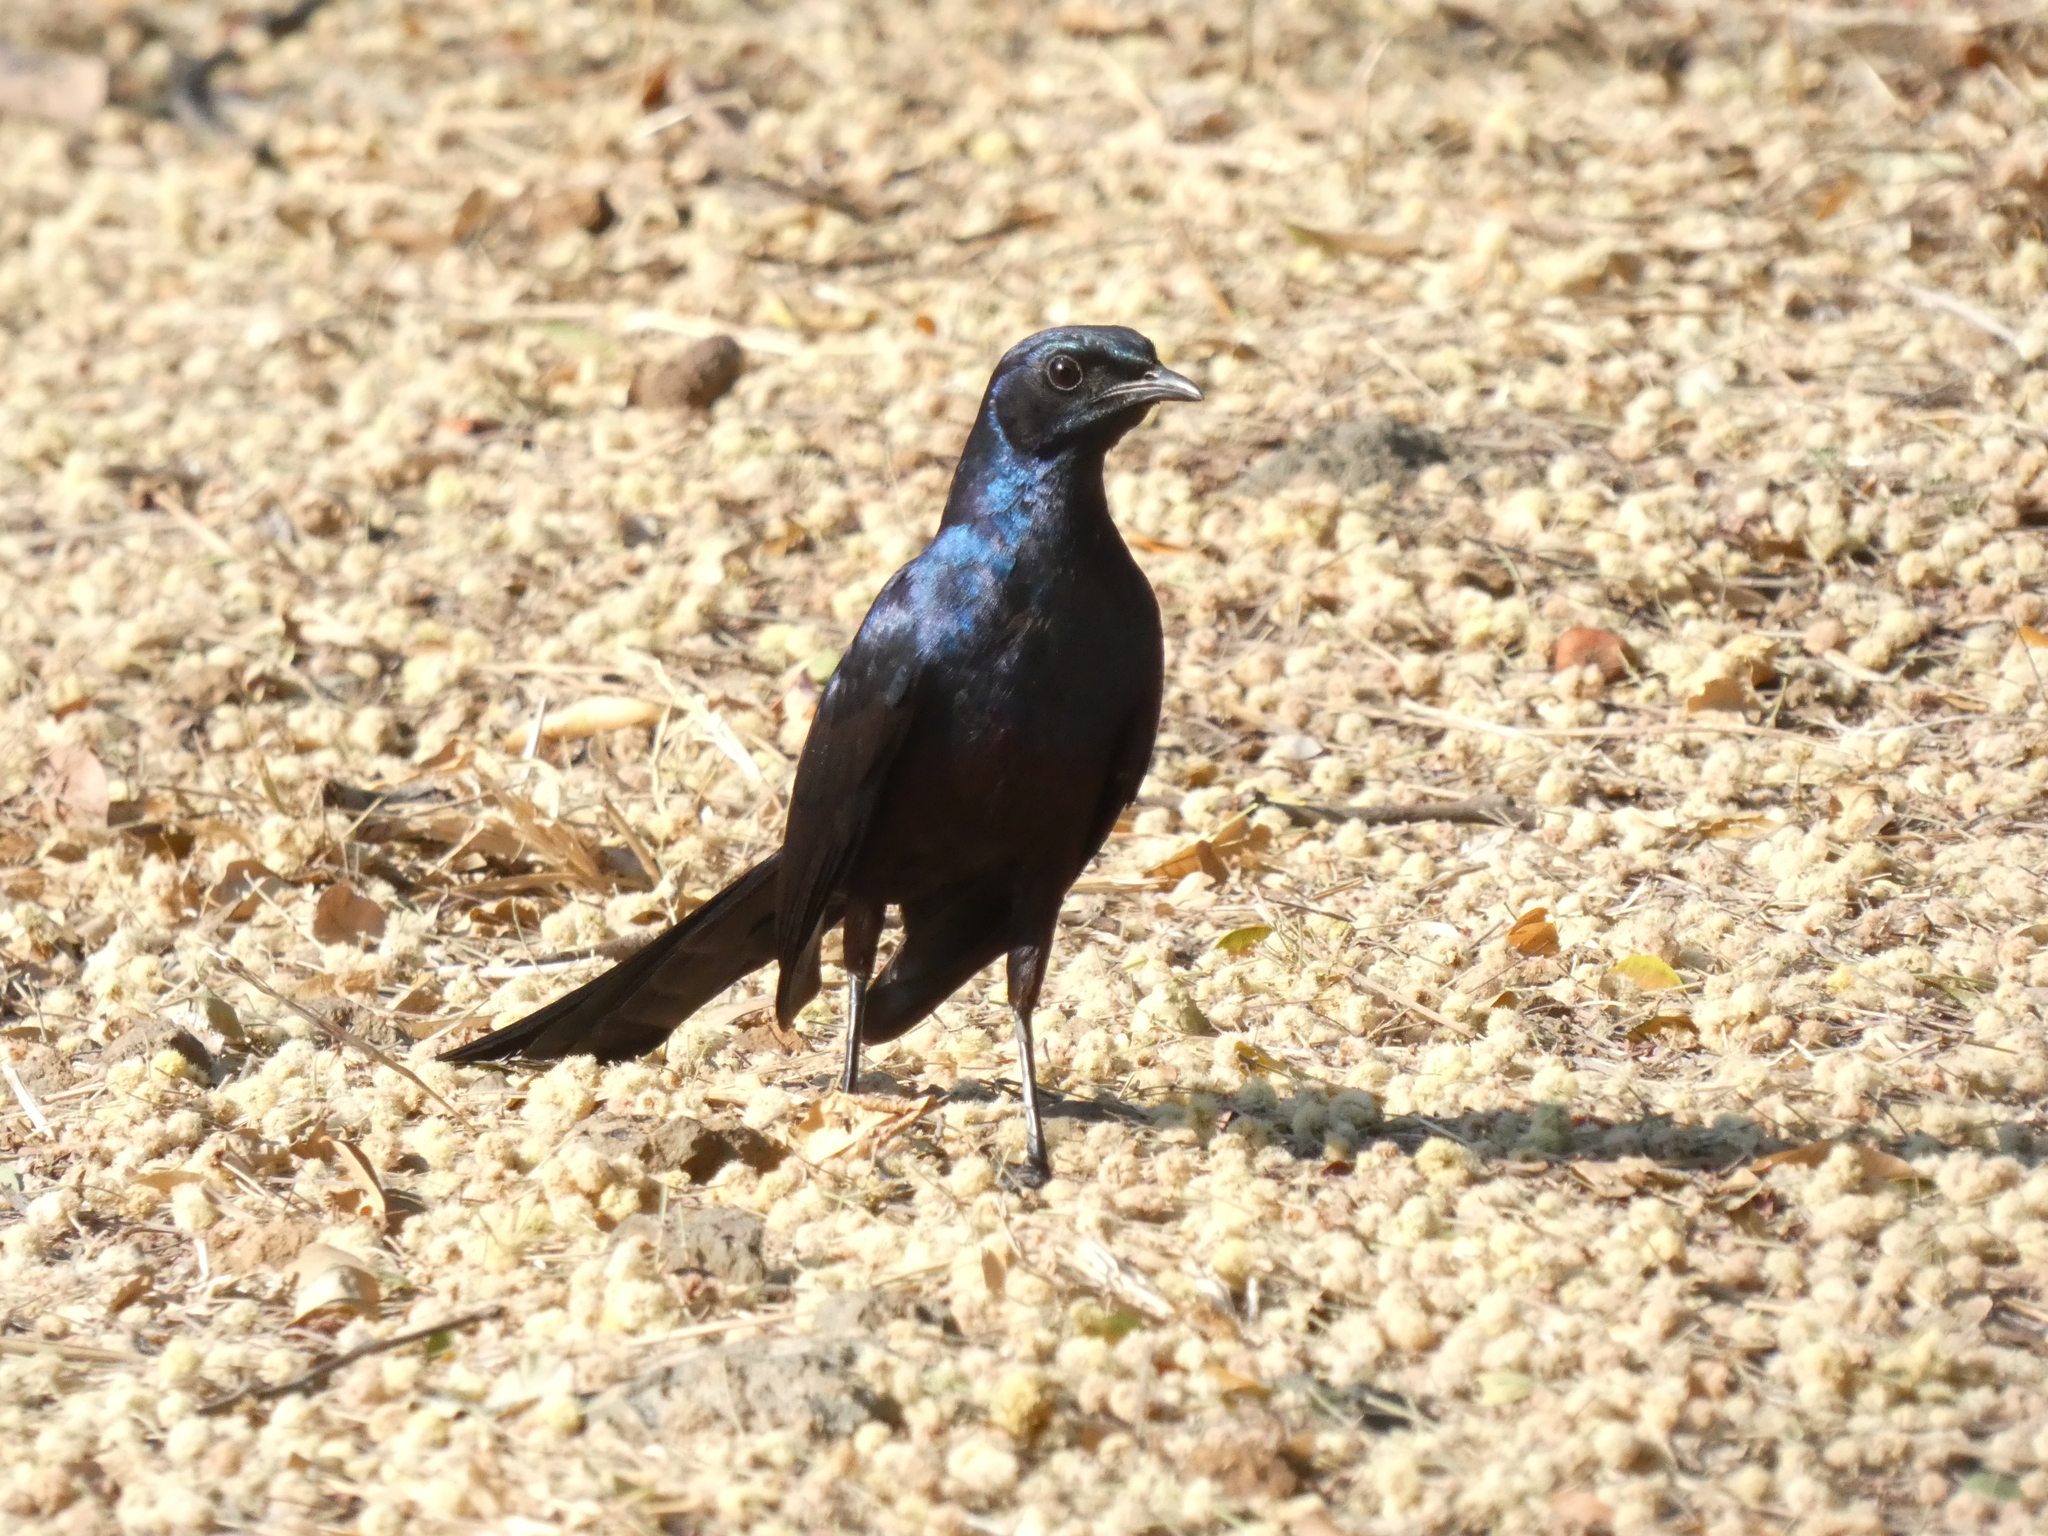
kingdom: Animalia
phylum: Chordata
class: Aves
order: Passeriformes
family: Sturnidae
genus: Lamprotornis
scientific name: Lamprotornis mevesii
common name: Meves's starling
